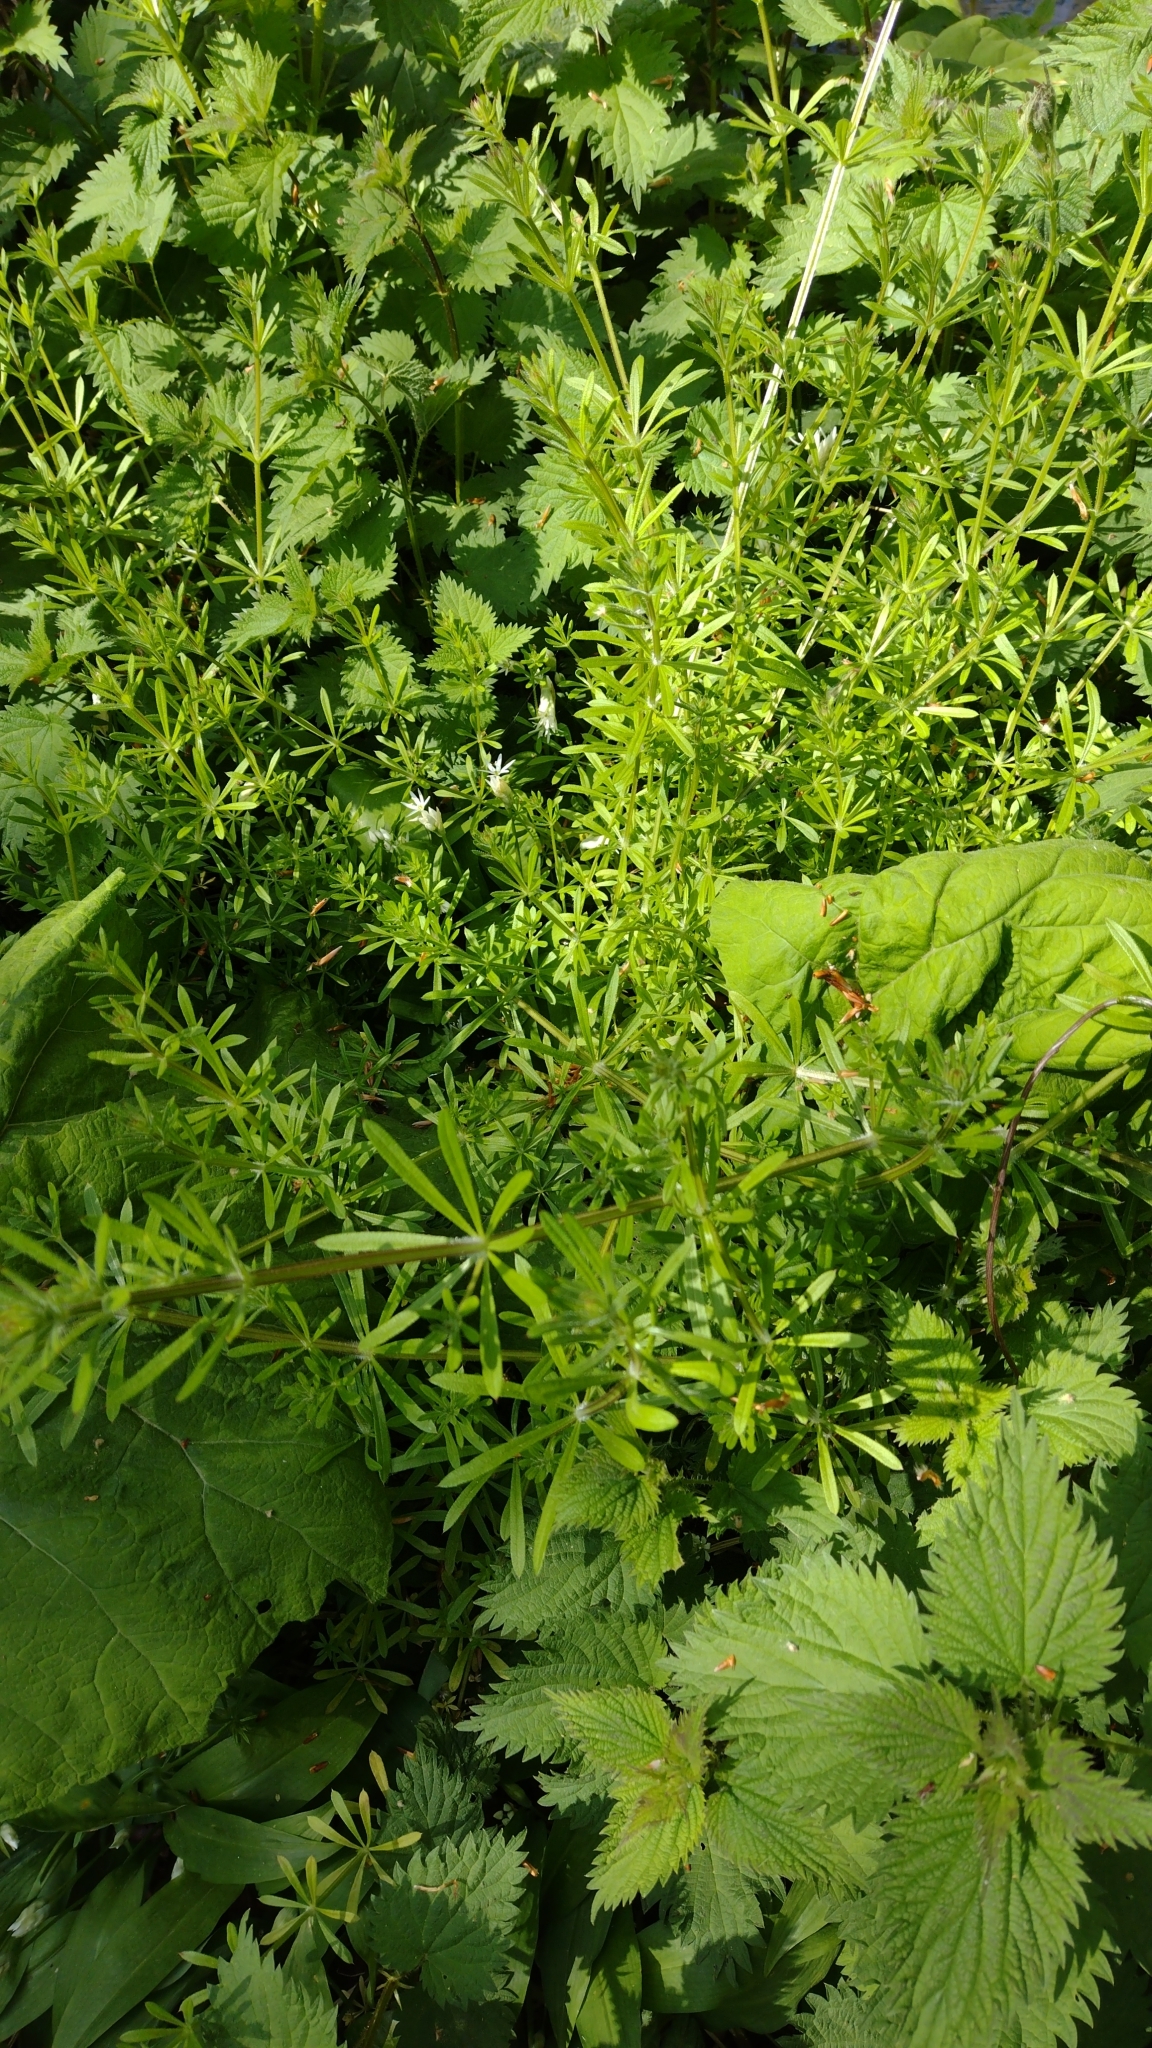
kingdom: Plantae
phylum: Tracheophyta
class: Magnoliopsida
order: Gentianales
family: Rubiaceae
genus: Galium
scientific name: Galium aparine
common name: Cleavers
